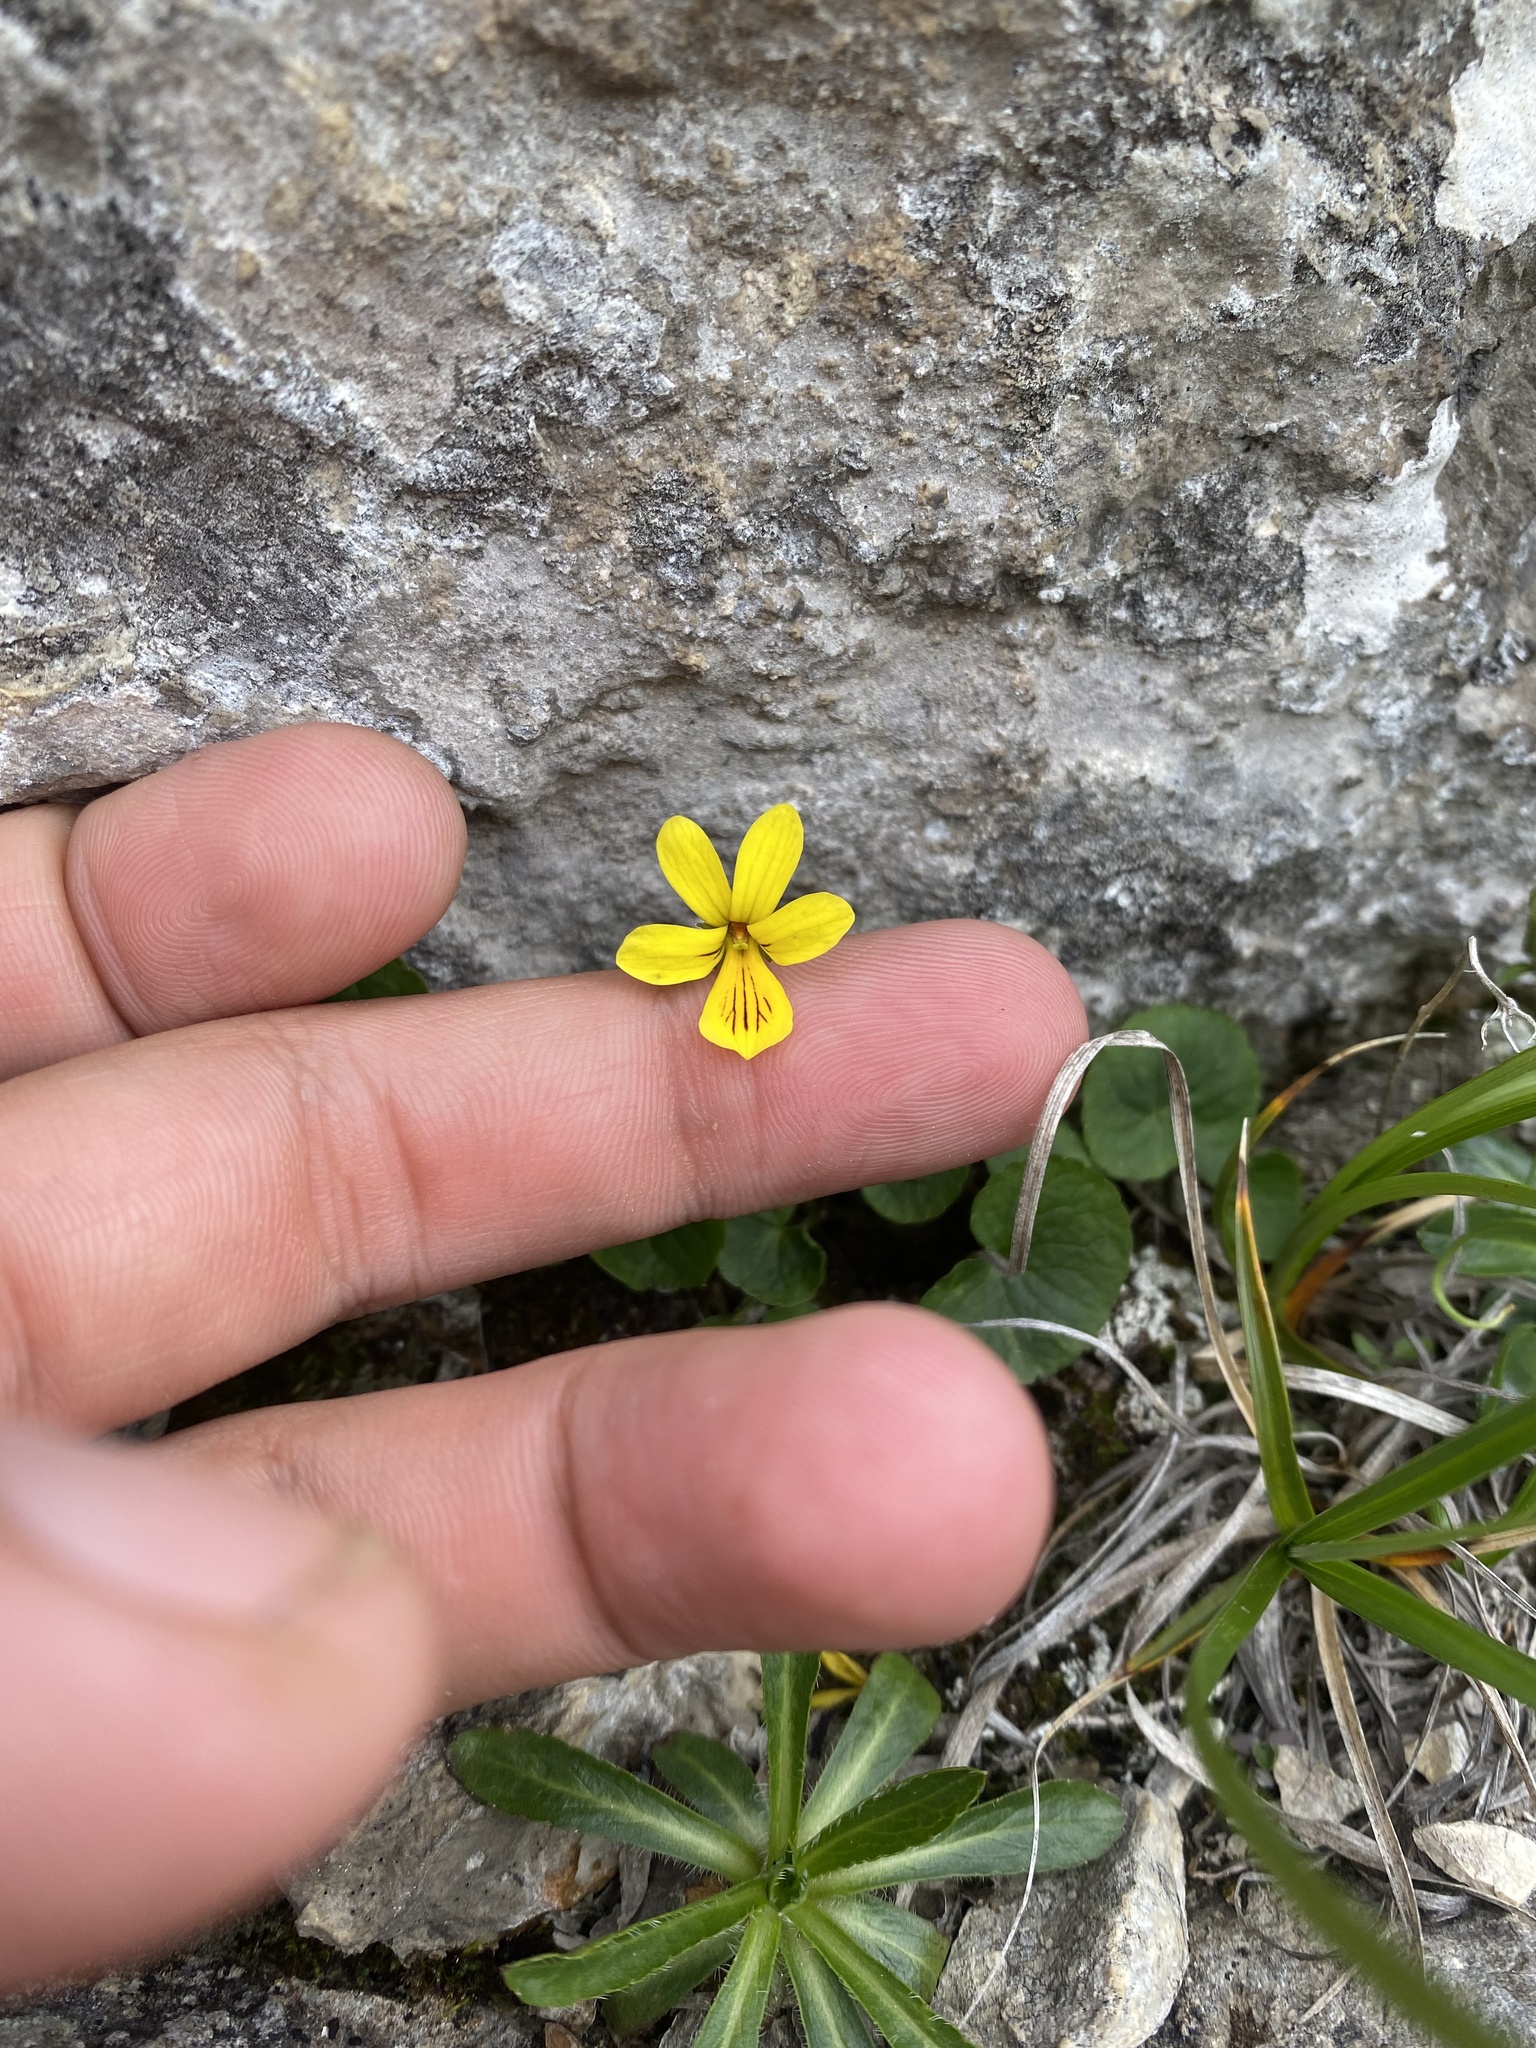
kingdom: Plantae
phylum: Tracheophyta
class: Magnoliopsida
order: Malpighiales
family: Violaceae
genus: Viola
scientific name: Viola caucasica
